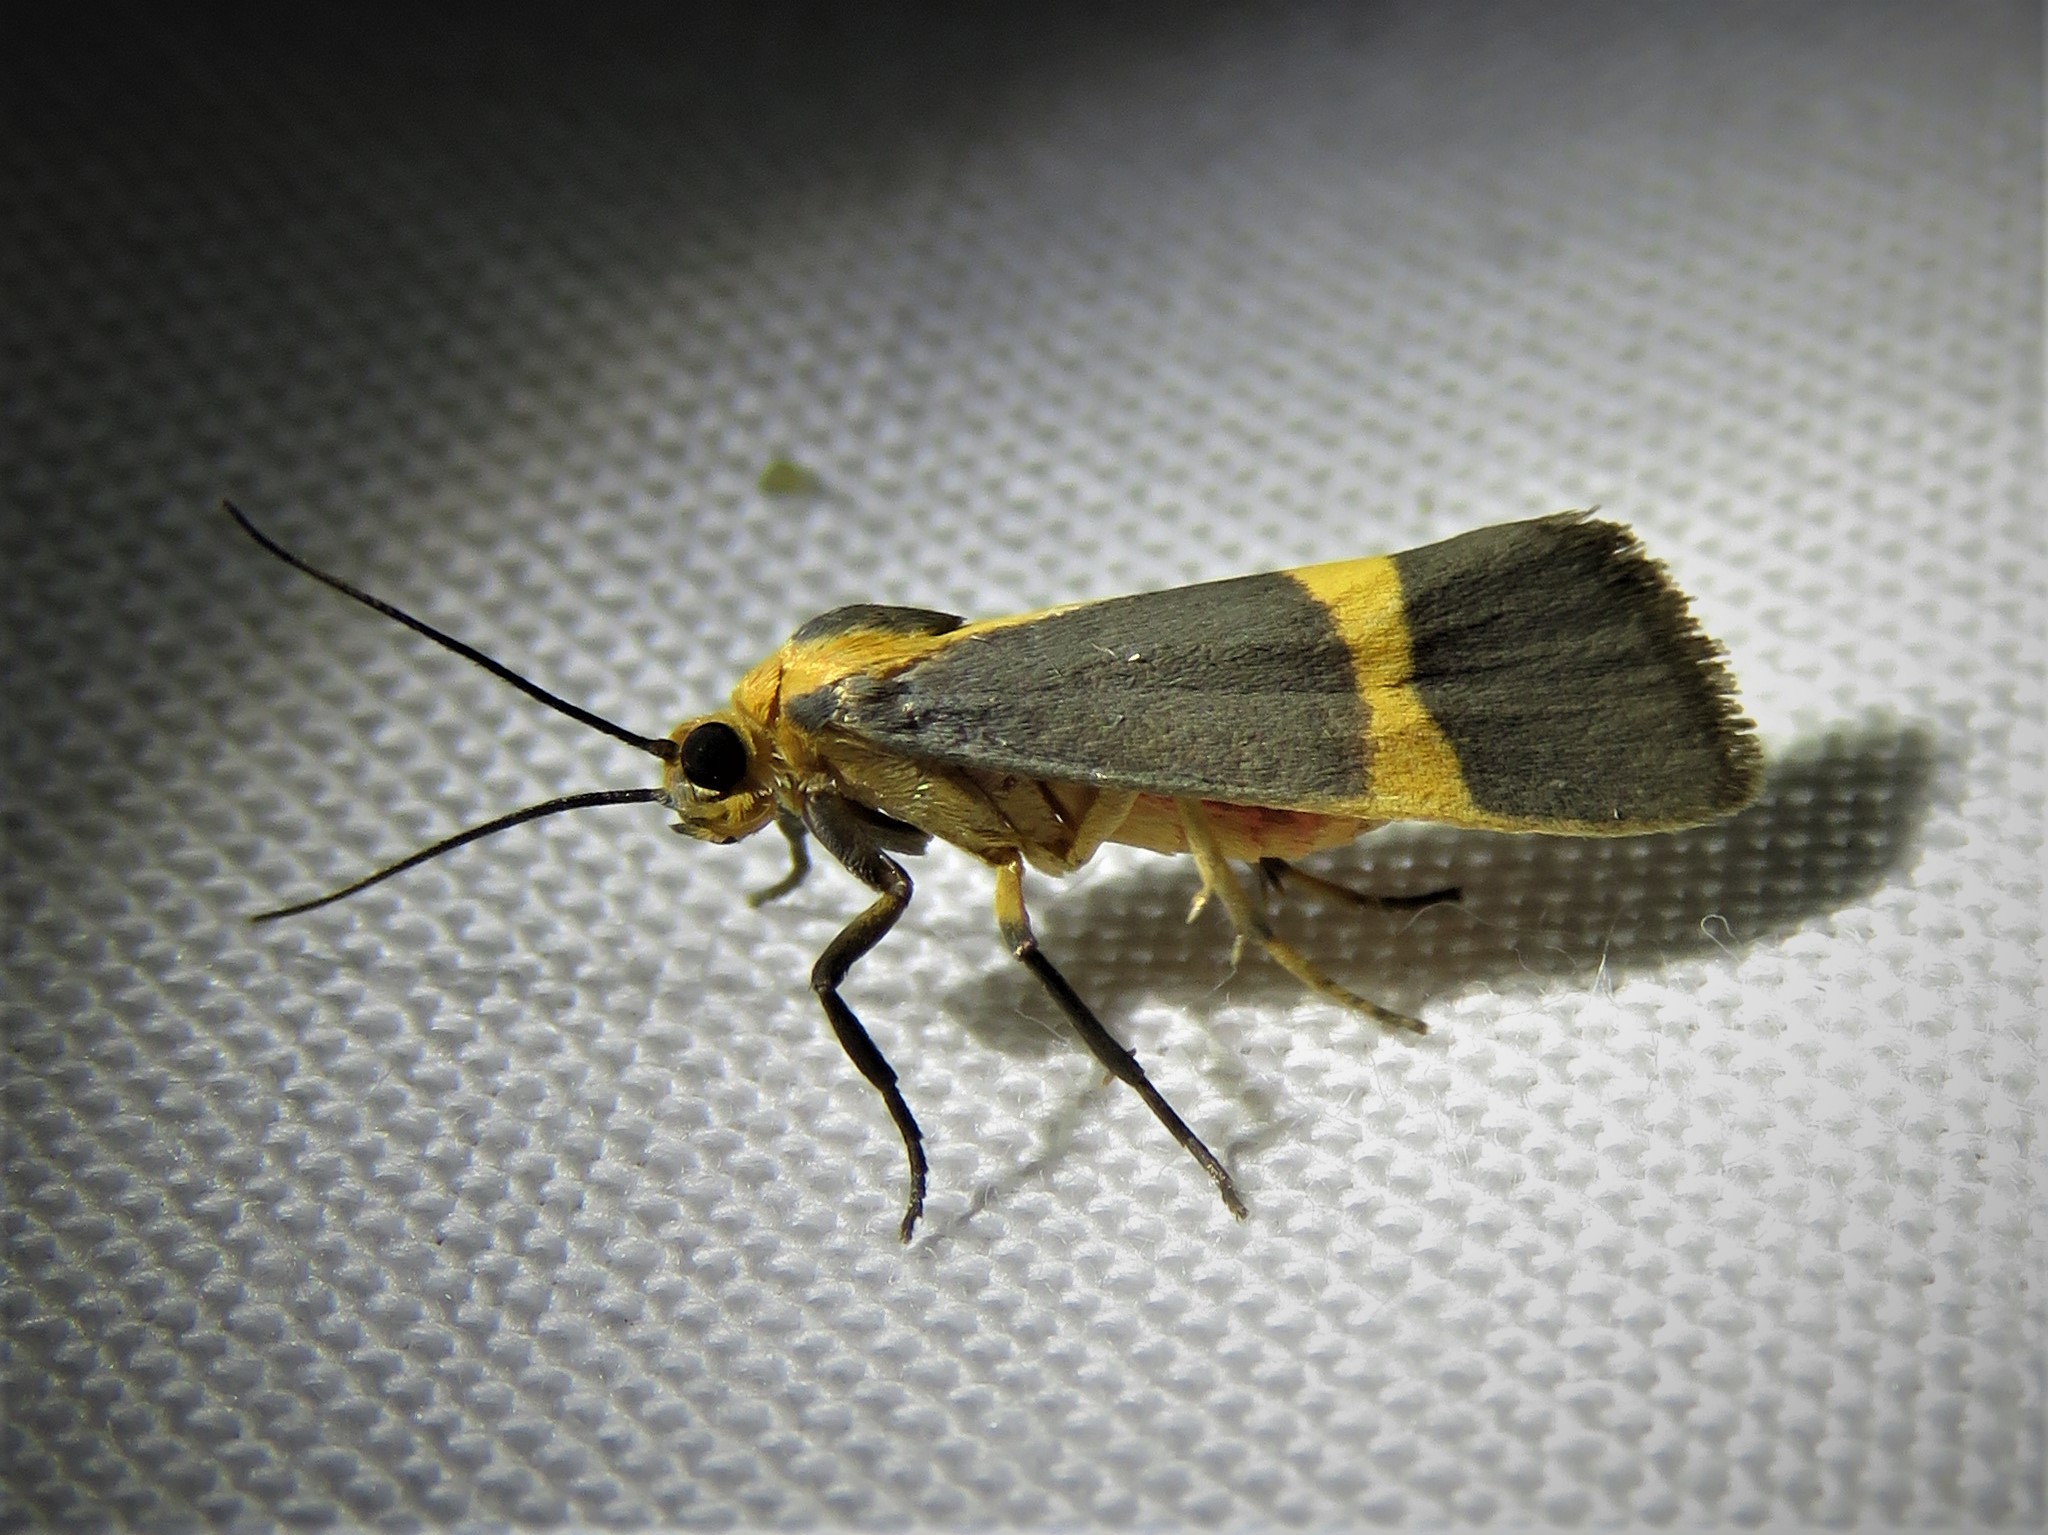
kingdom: Animalia
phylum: Arthropoda
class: Insecta
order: Lepidoptera
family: Erebidae
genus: Cisthene
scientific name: Cisthene tenuifascia
